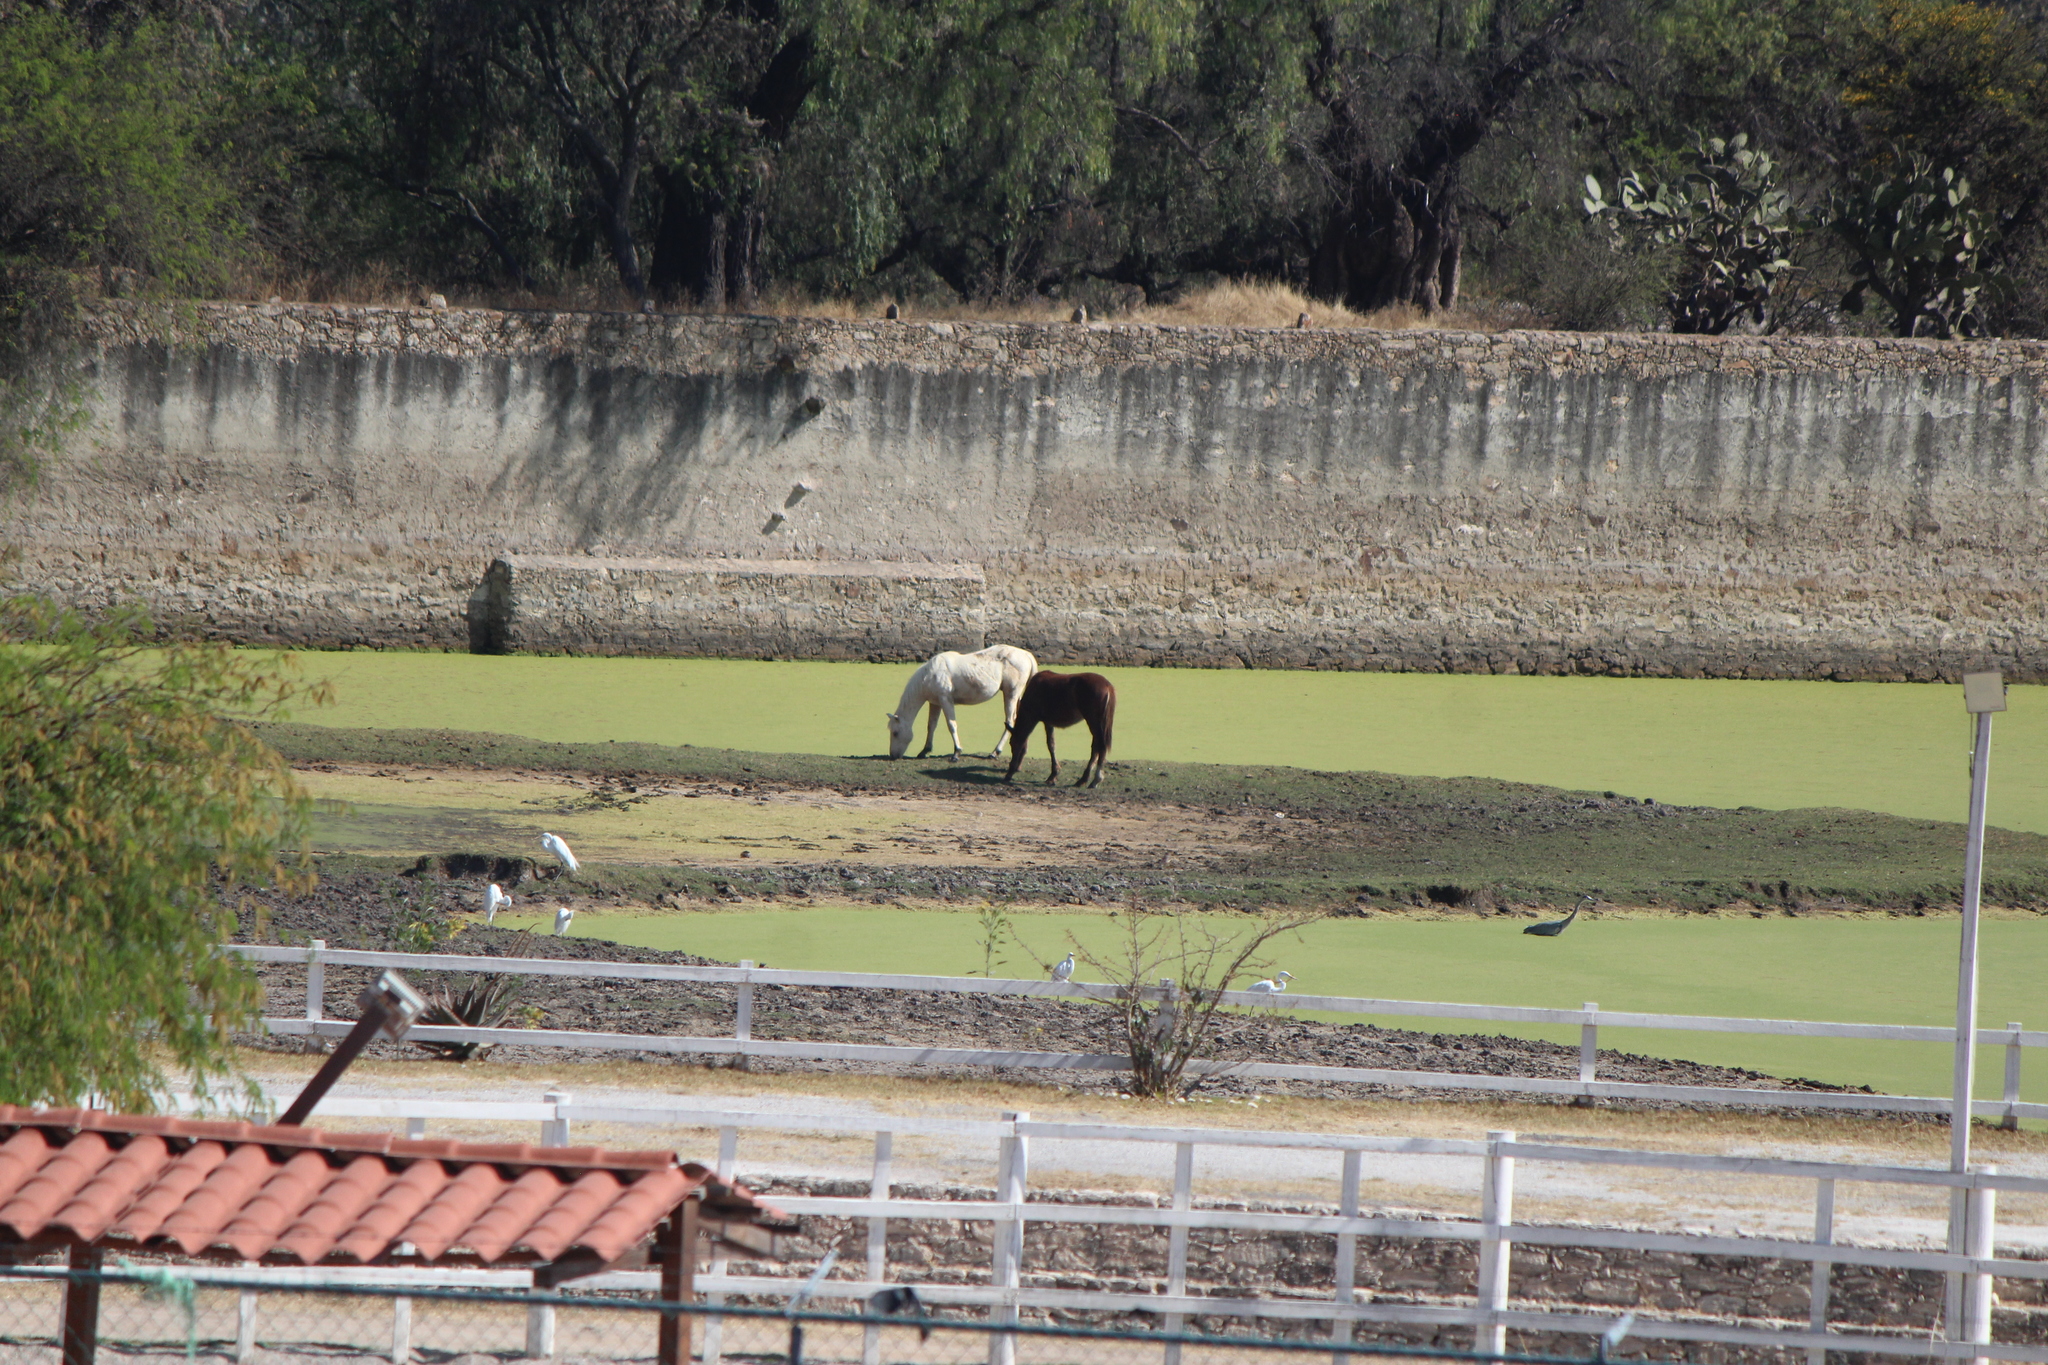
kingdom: Animalia
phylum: Chordata
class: Aves
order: Pelecaniformes
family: Ardeidae
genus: Ardea
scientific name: Ardea alba
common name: Great egret
